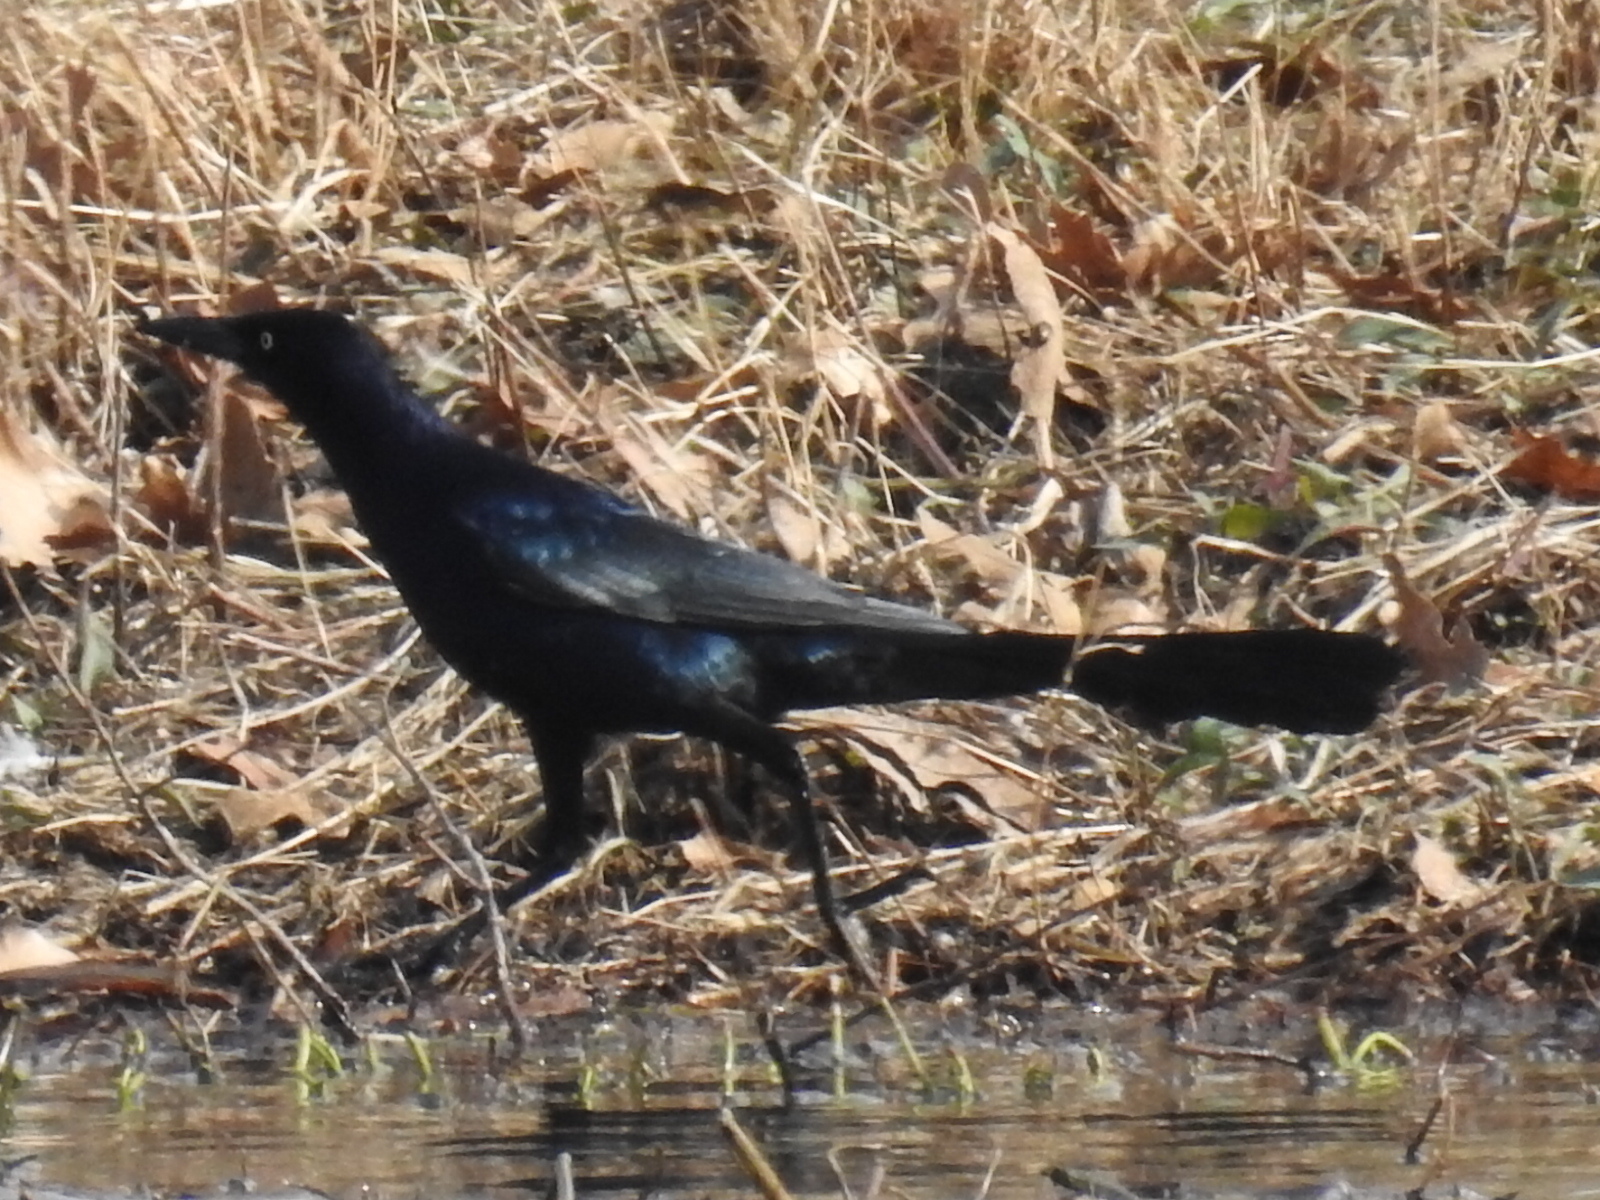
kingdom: Animalia
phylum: Chordata
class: Aves
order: Passeriformes
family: Icteridae
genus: Quiscalus
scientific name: Quiscalus mexicanus
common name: Great-tailed grackle
